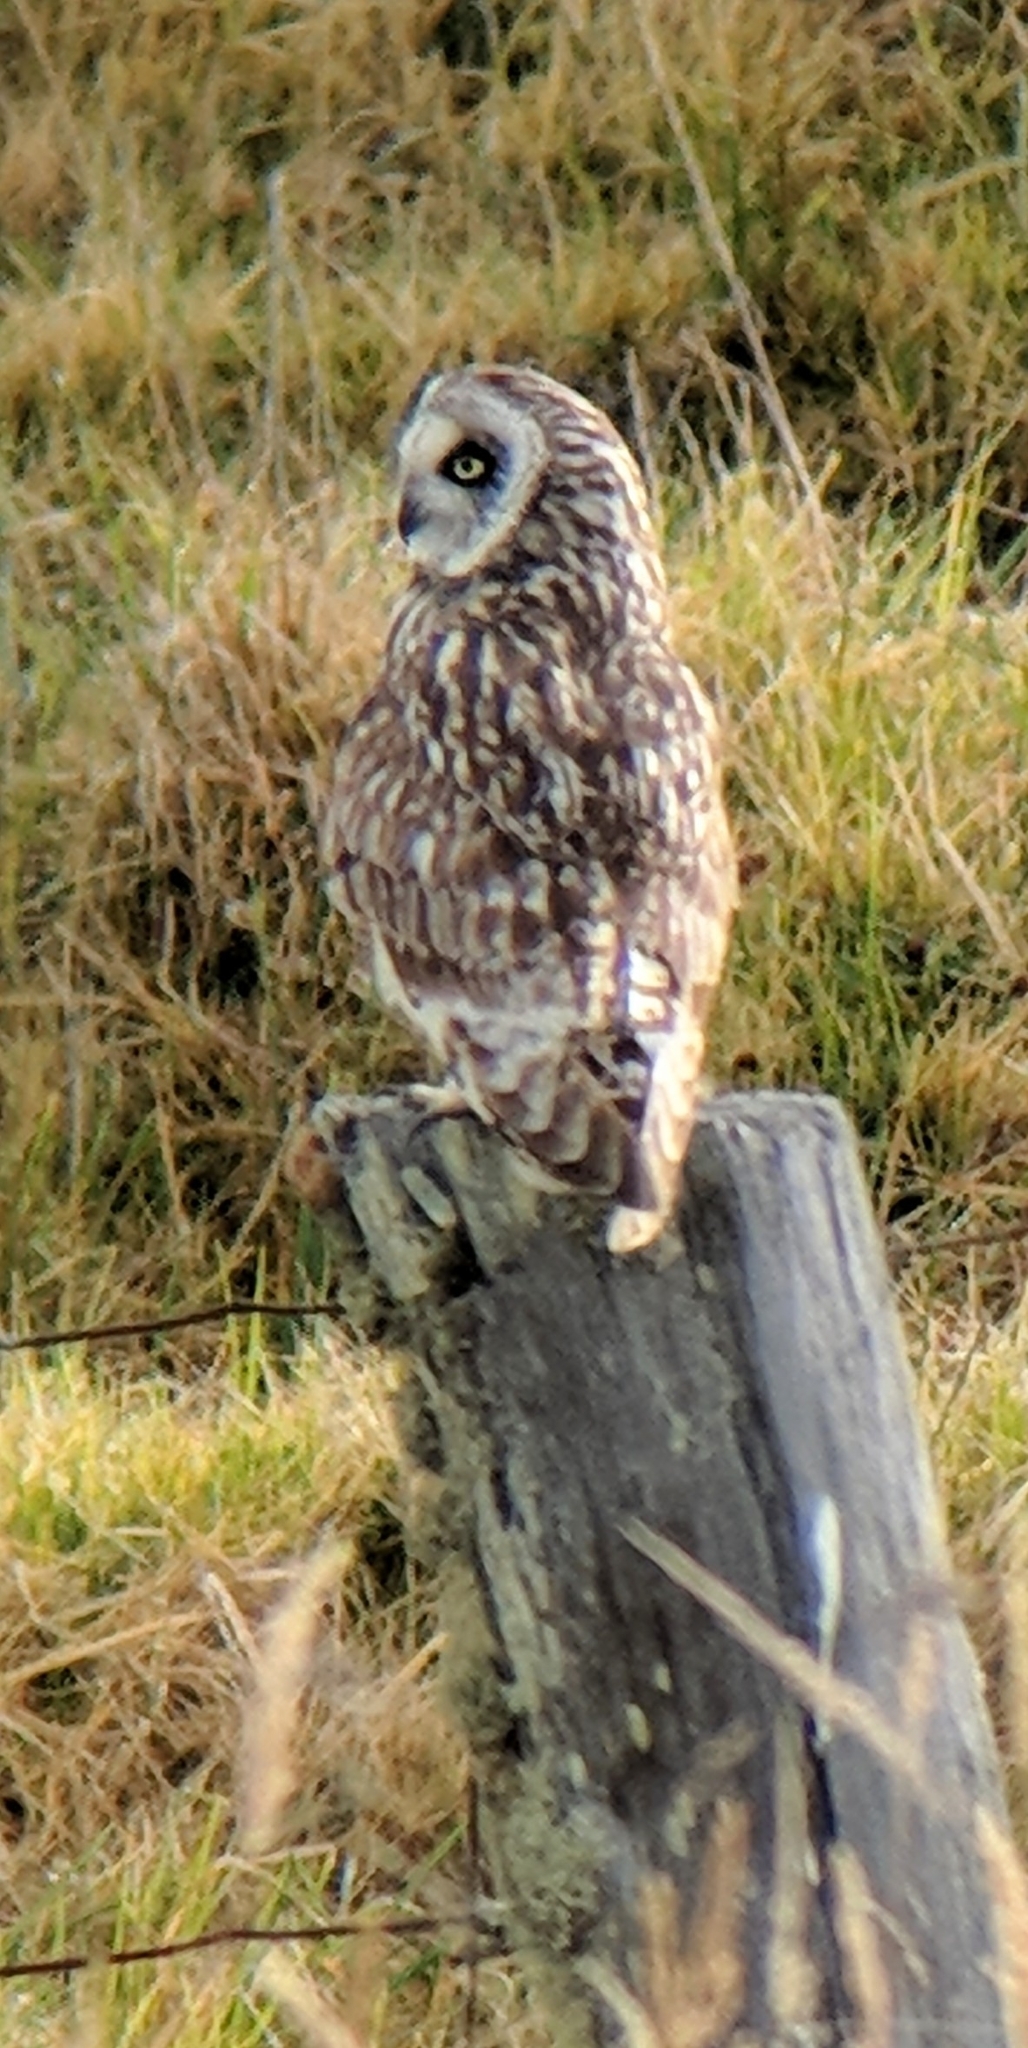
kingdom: Animalia
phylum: Chordata
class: Aves
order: Strigiformes
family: Strigidae
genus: Asio
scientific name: Asio flammeus
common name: Short-eared owl
